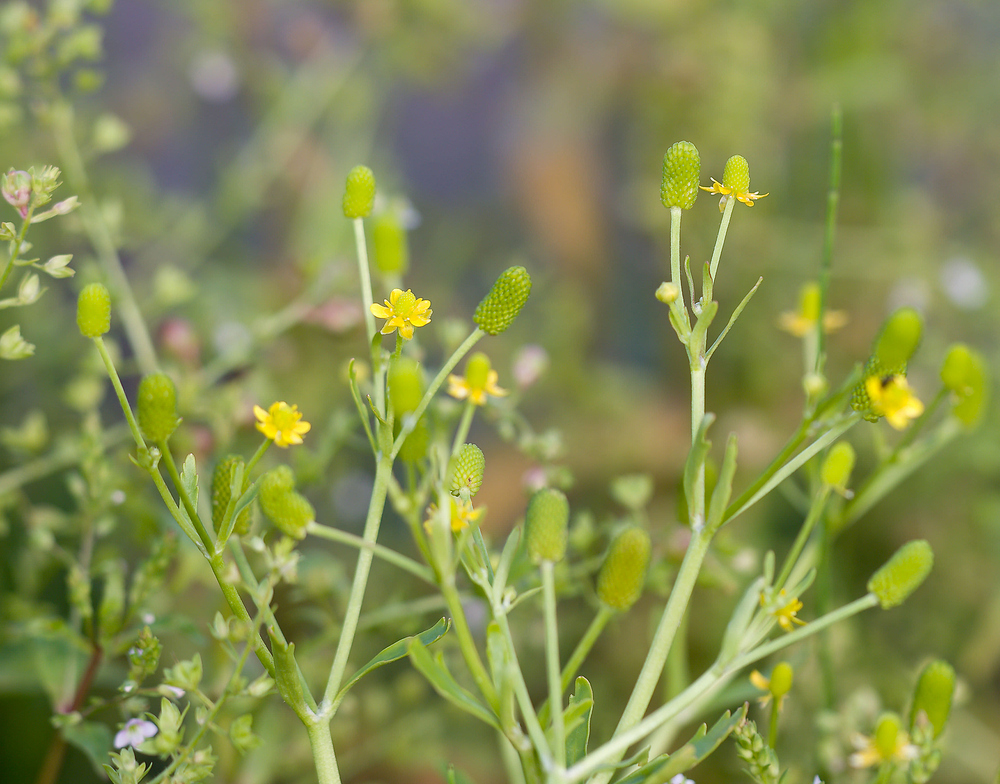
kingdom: Plantae
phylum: Tracheophyta
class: Magnoliopsida
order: Ranunculales
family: Ranunculaceae
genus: Ranunculus
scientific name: Ranunculus sceleratus
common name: Celery-leaved buttercup
